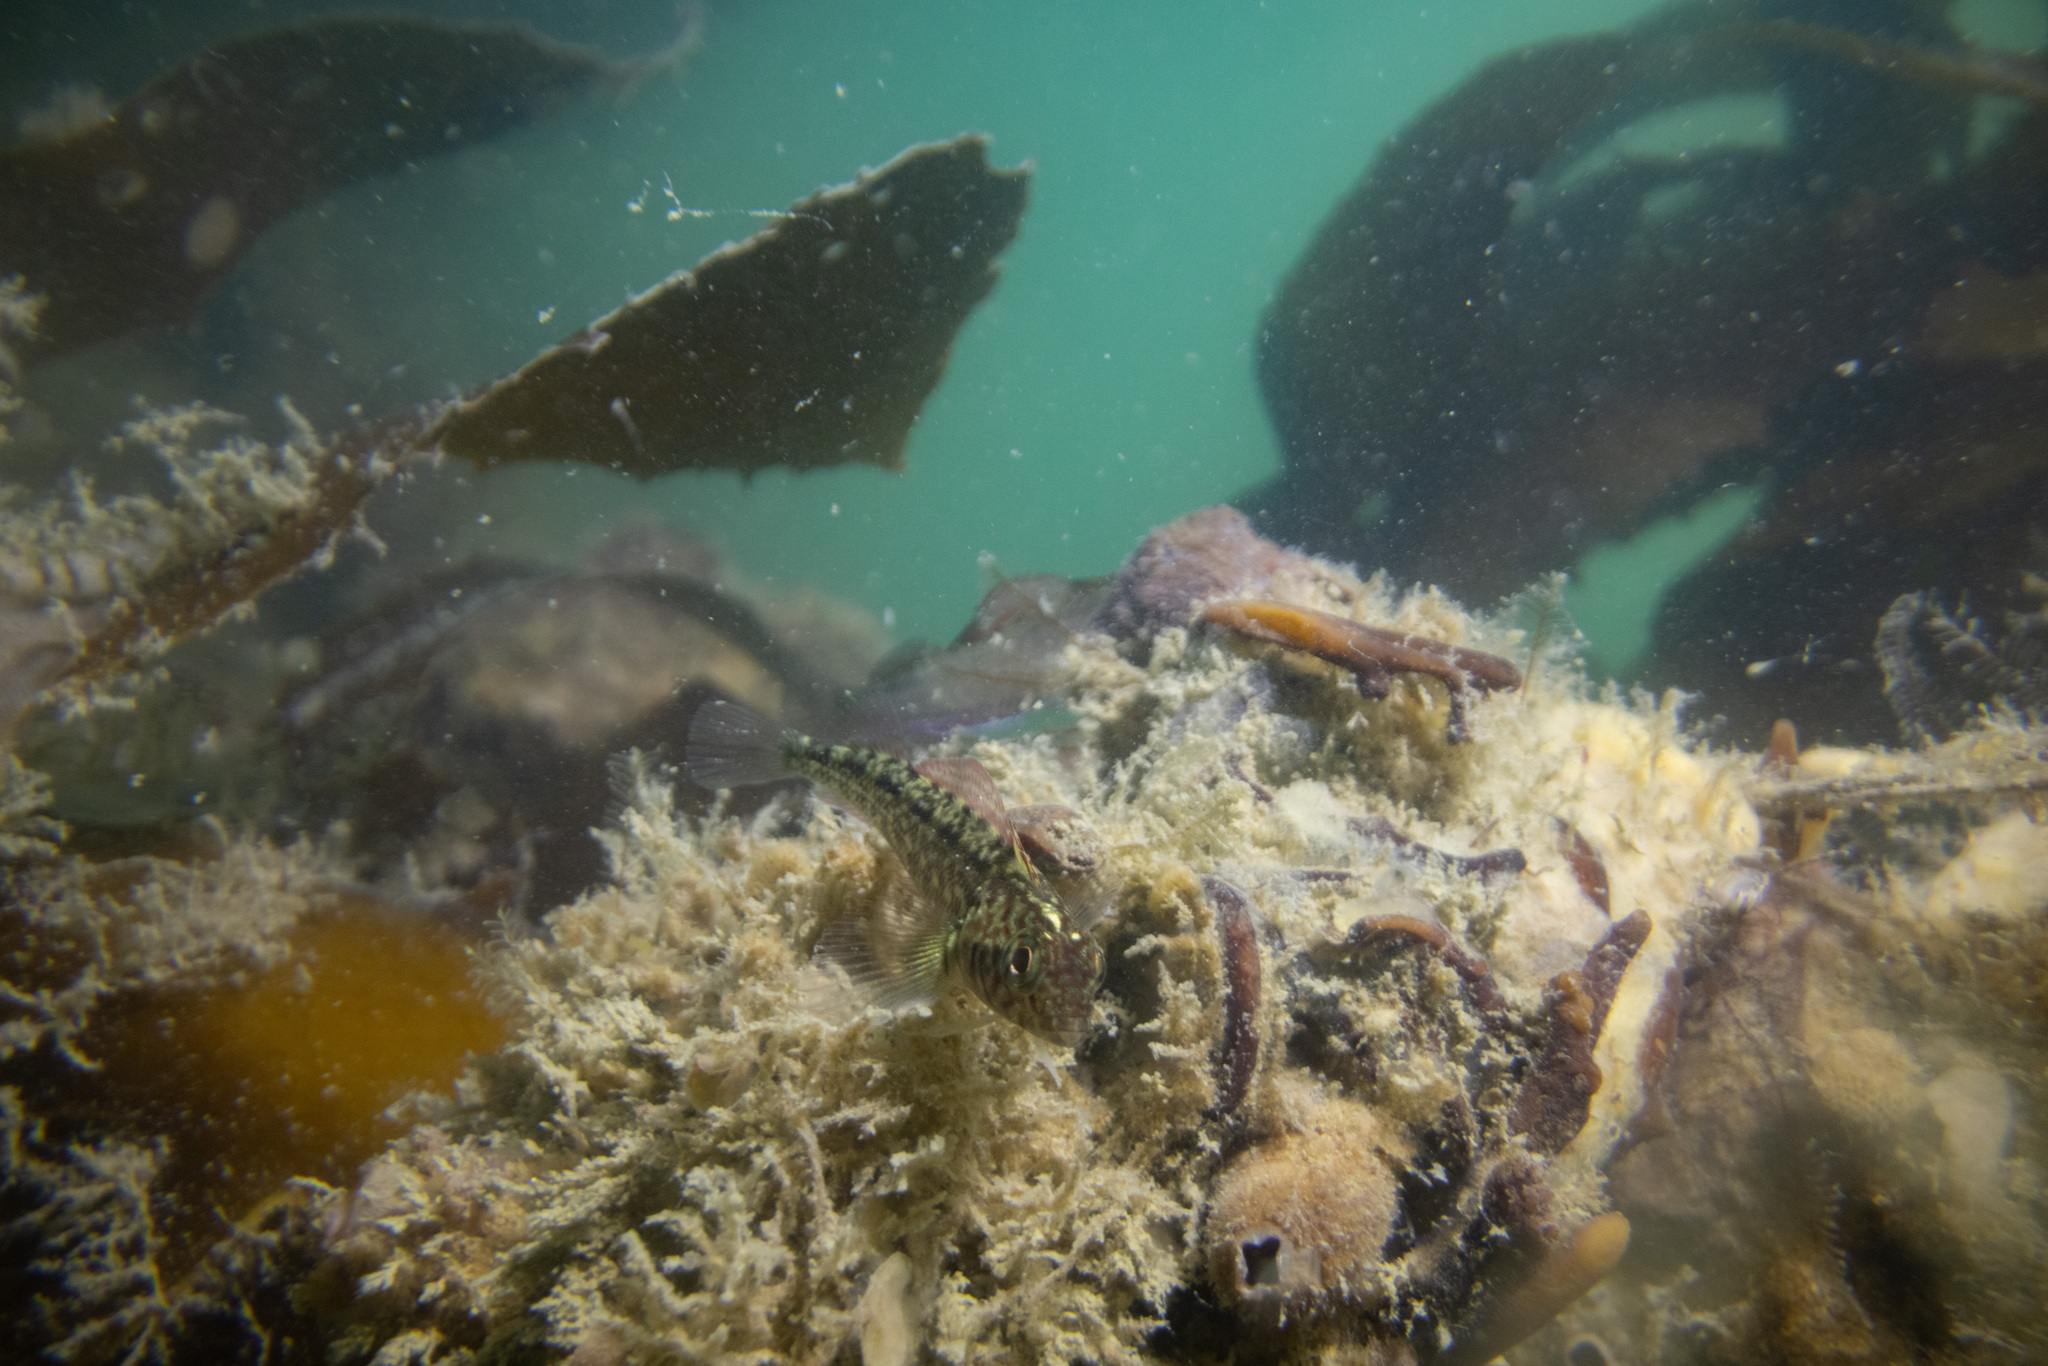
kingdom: Animalia
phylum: Chordata
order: Perciformes
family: Tripterygiidae
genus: Forsterygion
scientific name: Forsterygion lapillum
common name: Common triplefin
